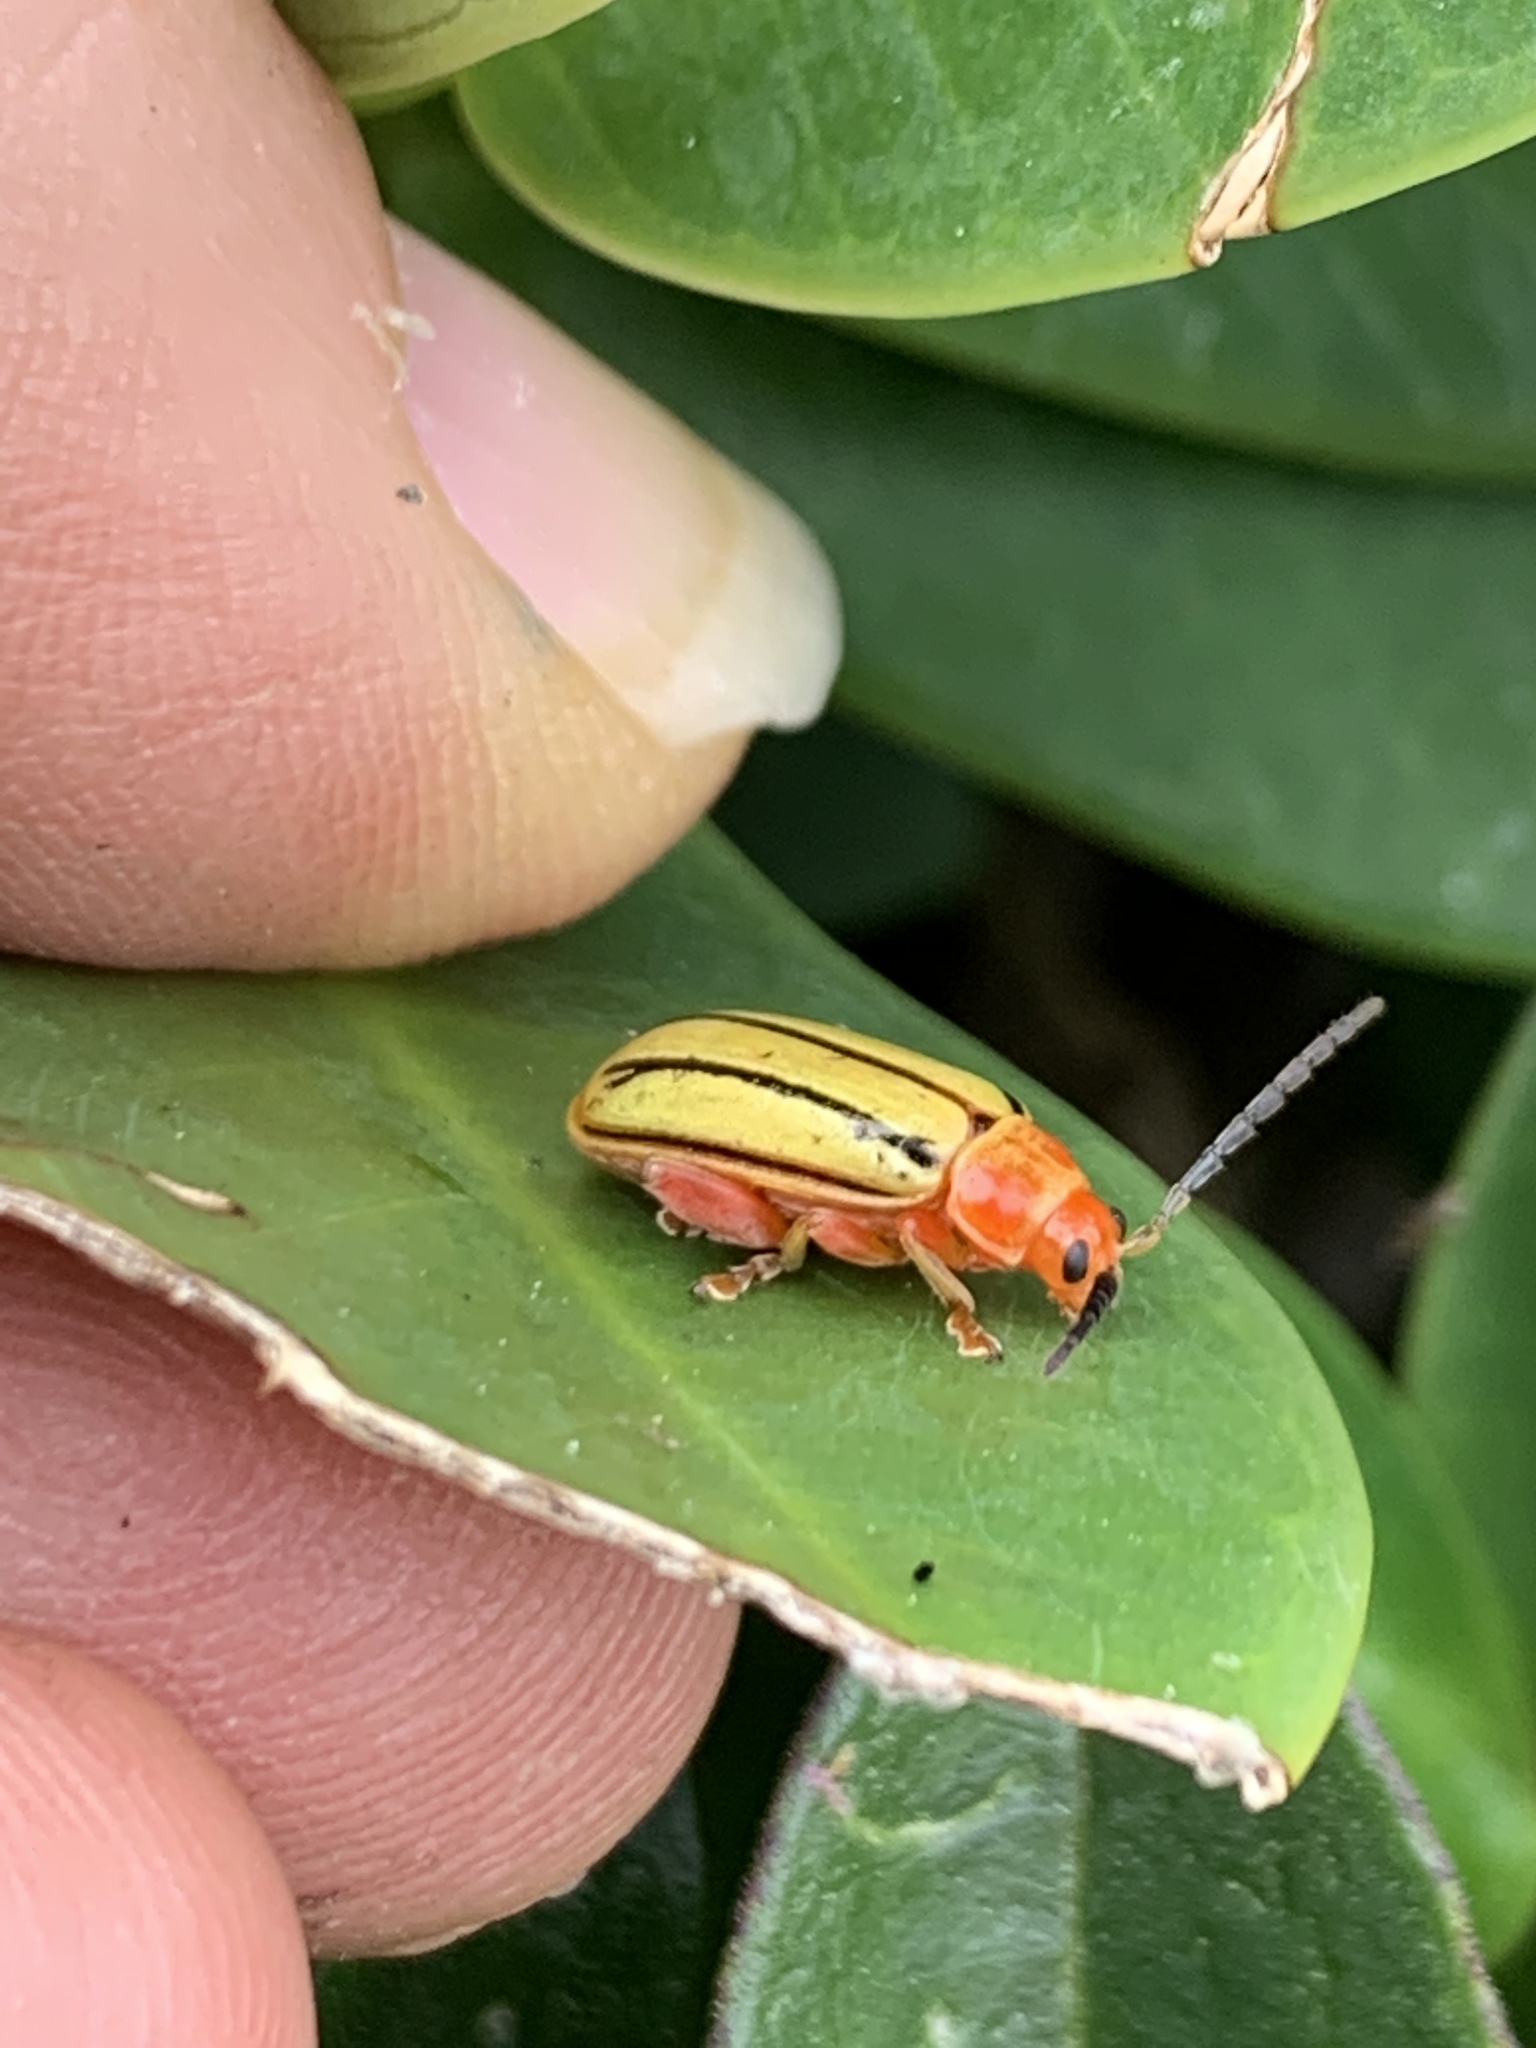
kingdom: Animalia
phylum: Arthropoda
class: Insecta
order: Coleoptera
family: Chrysomelidae
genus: Disonycha
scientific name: Disonycha
